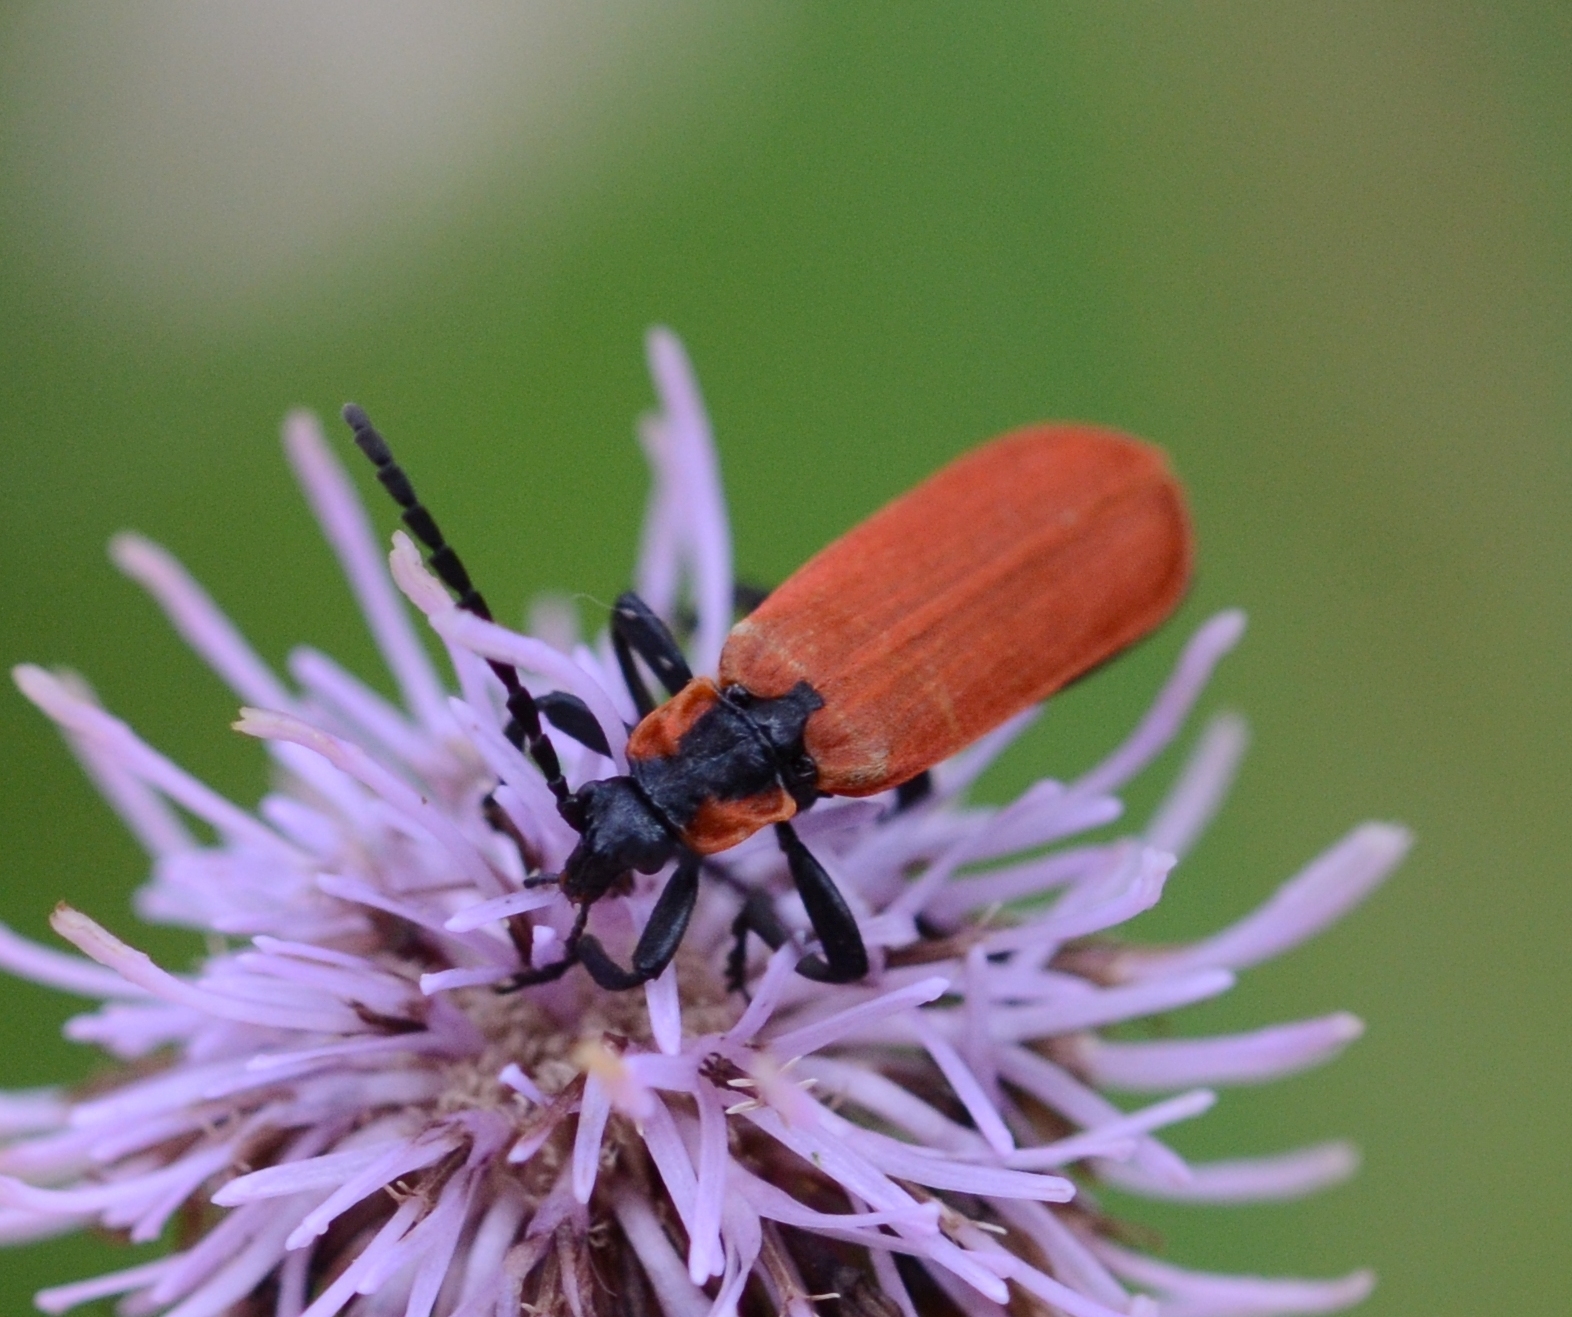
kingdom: Animalia
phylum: Arthropoda
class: Insecta
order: Coleoptera
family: Lycidae
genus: Lygistopterus
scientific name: Lygistopterus sanguineus
